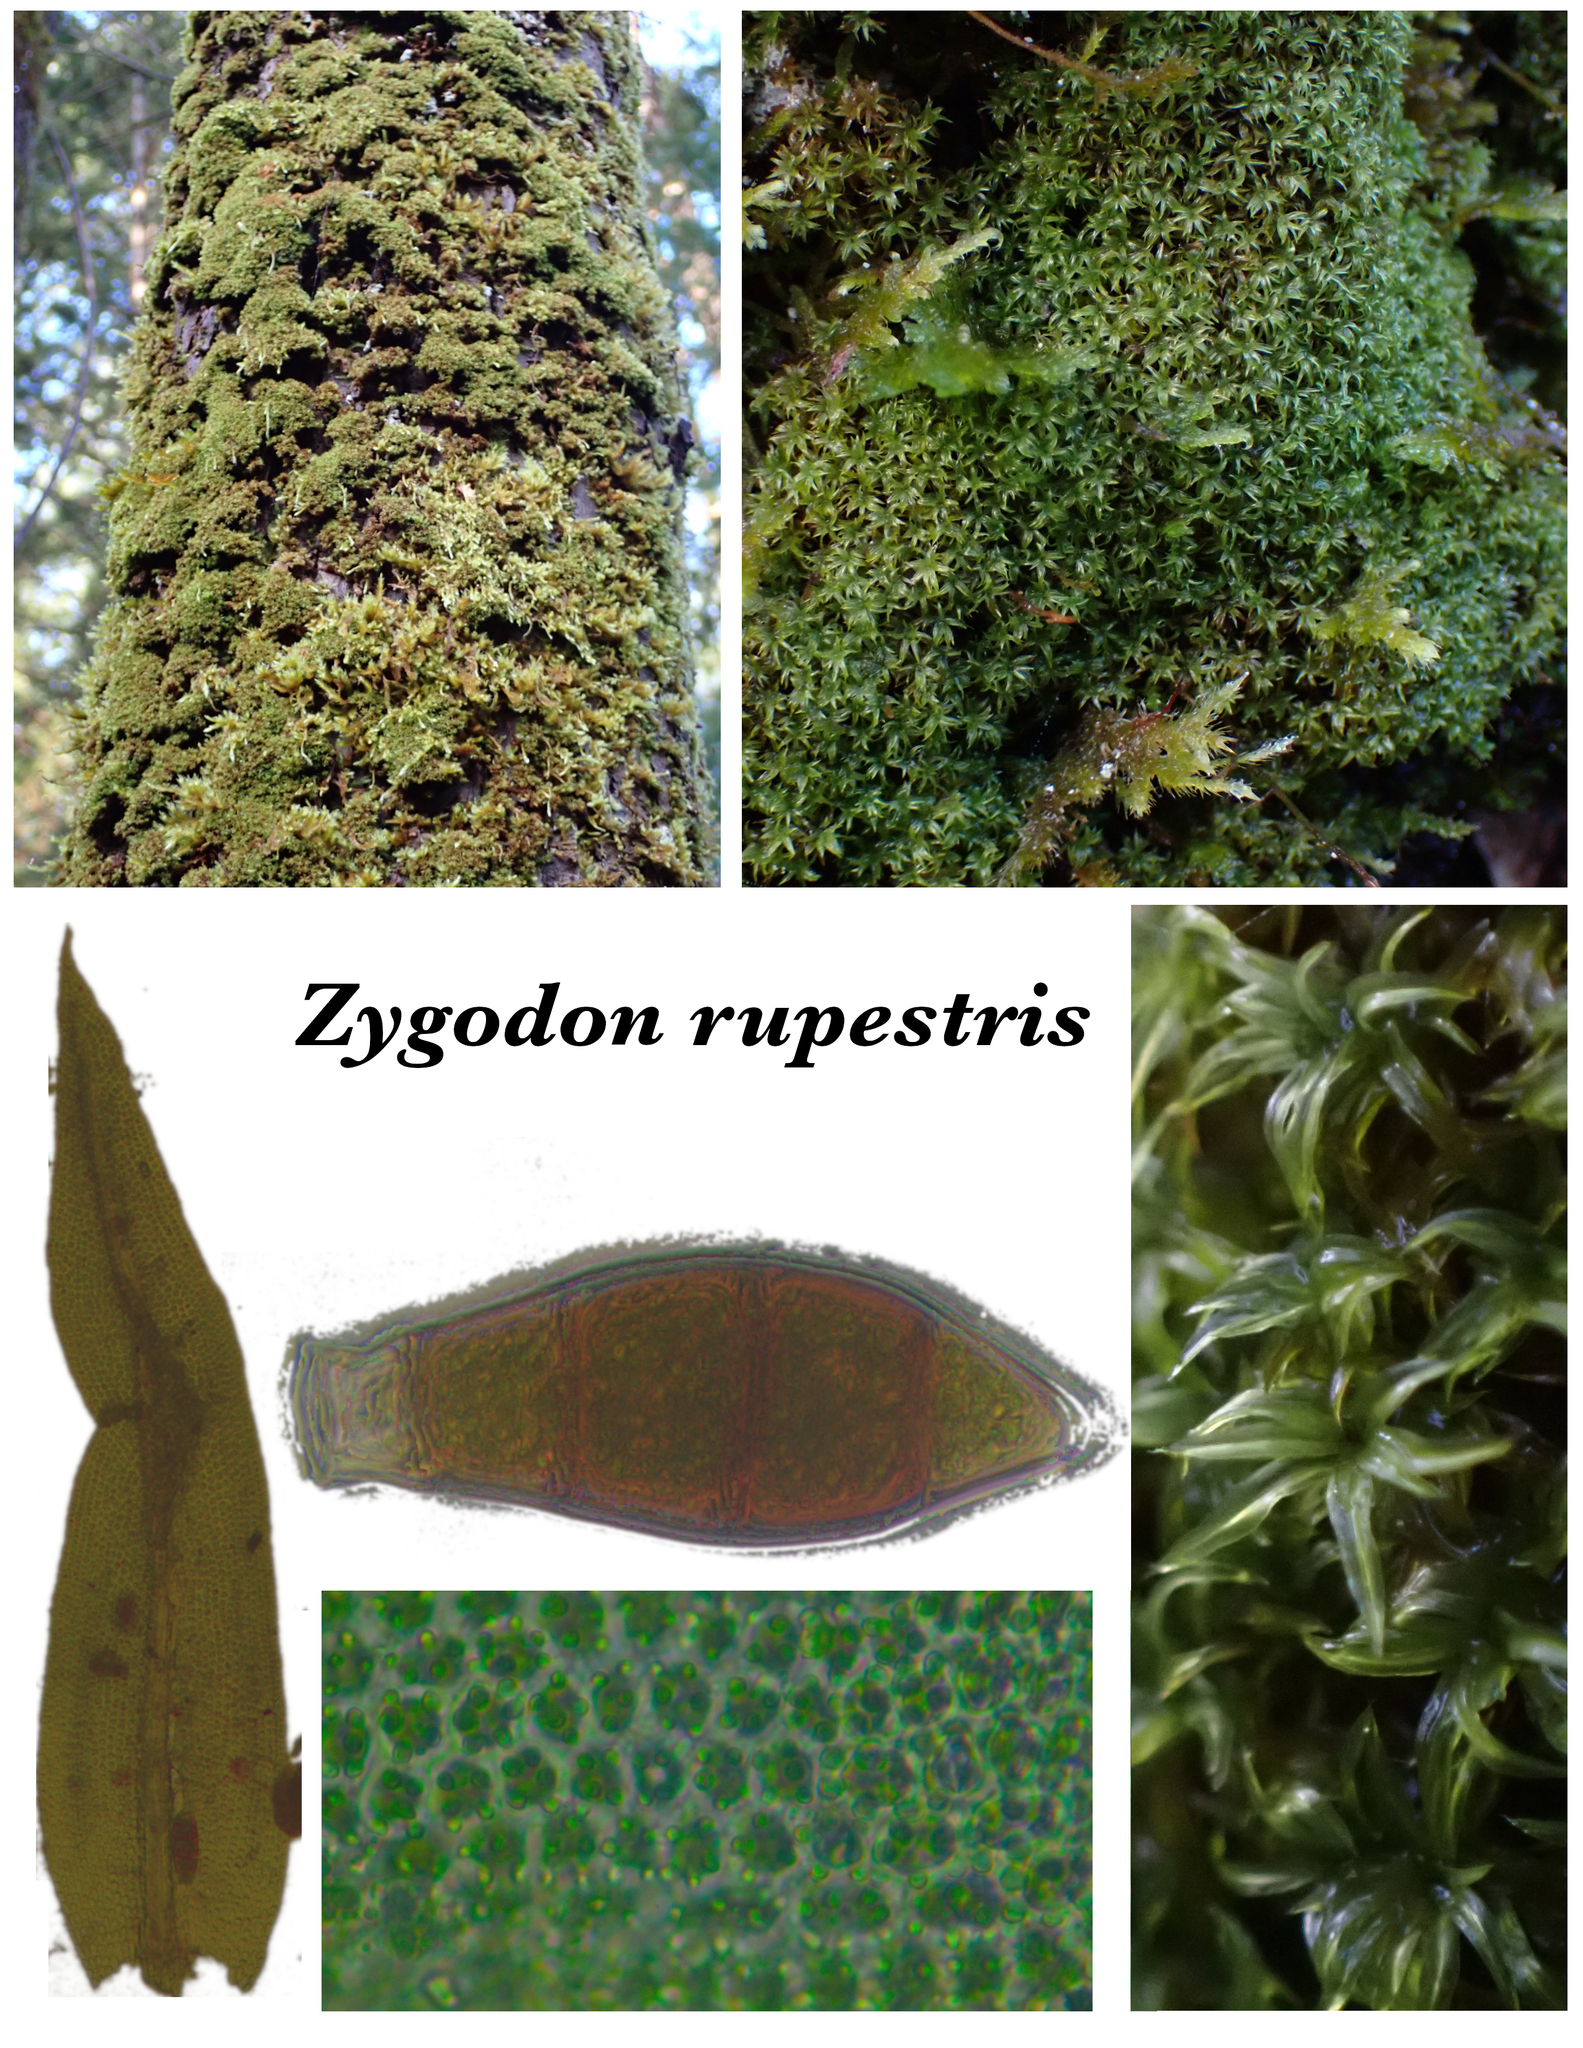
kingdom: Plantae
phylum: Bryophyta
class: Bryopsida
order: Orthotrichales
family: Orthotrichaceae
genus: Zygodon
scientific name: Zygodon rupestris
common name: Park yoke moss
